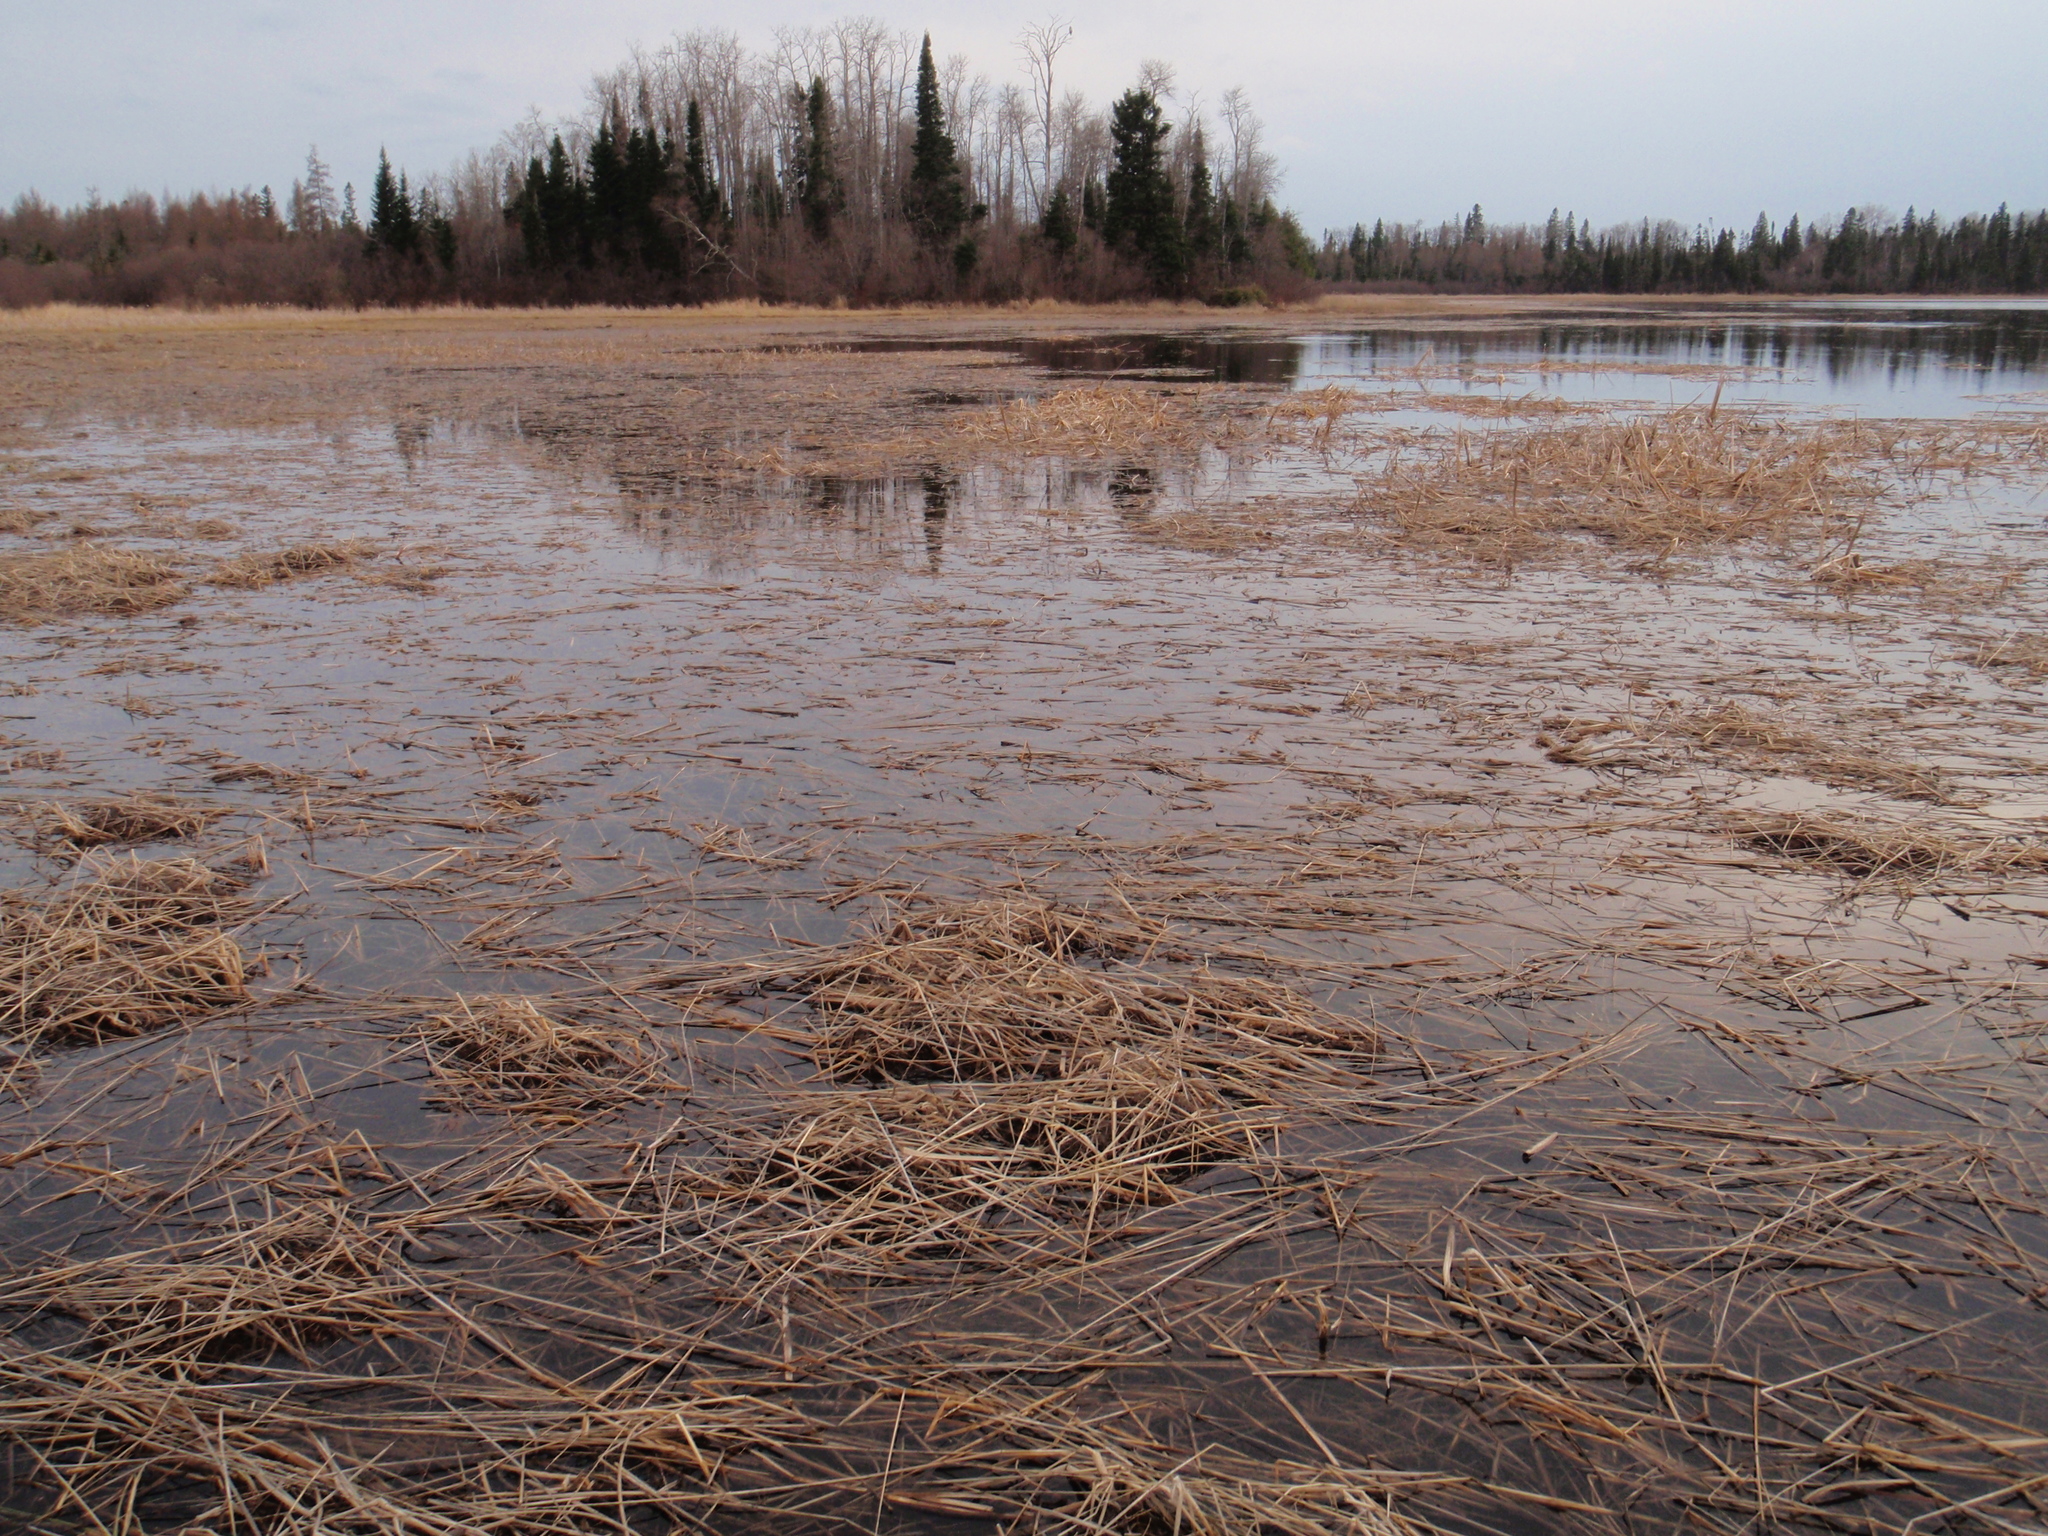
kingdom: Animalia
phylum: Chordata
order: Esociformes
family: Esocidae
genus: Esox
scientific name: Esox lucius
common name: Northern pike
